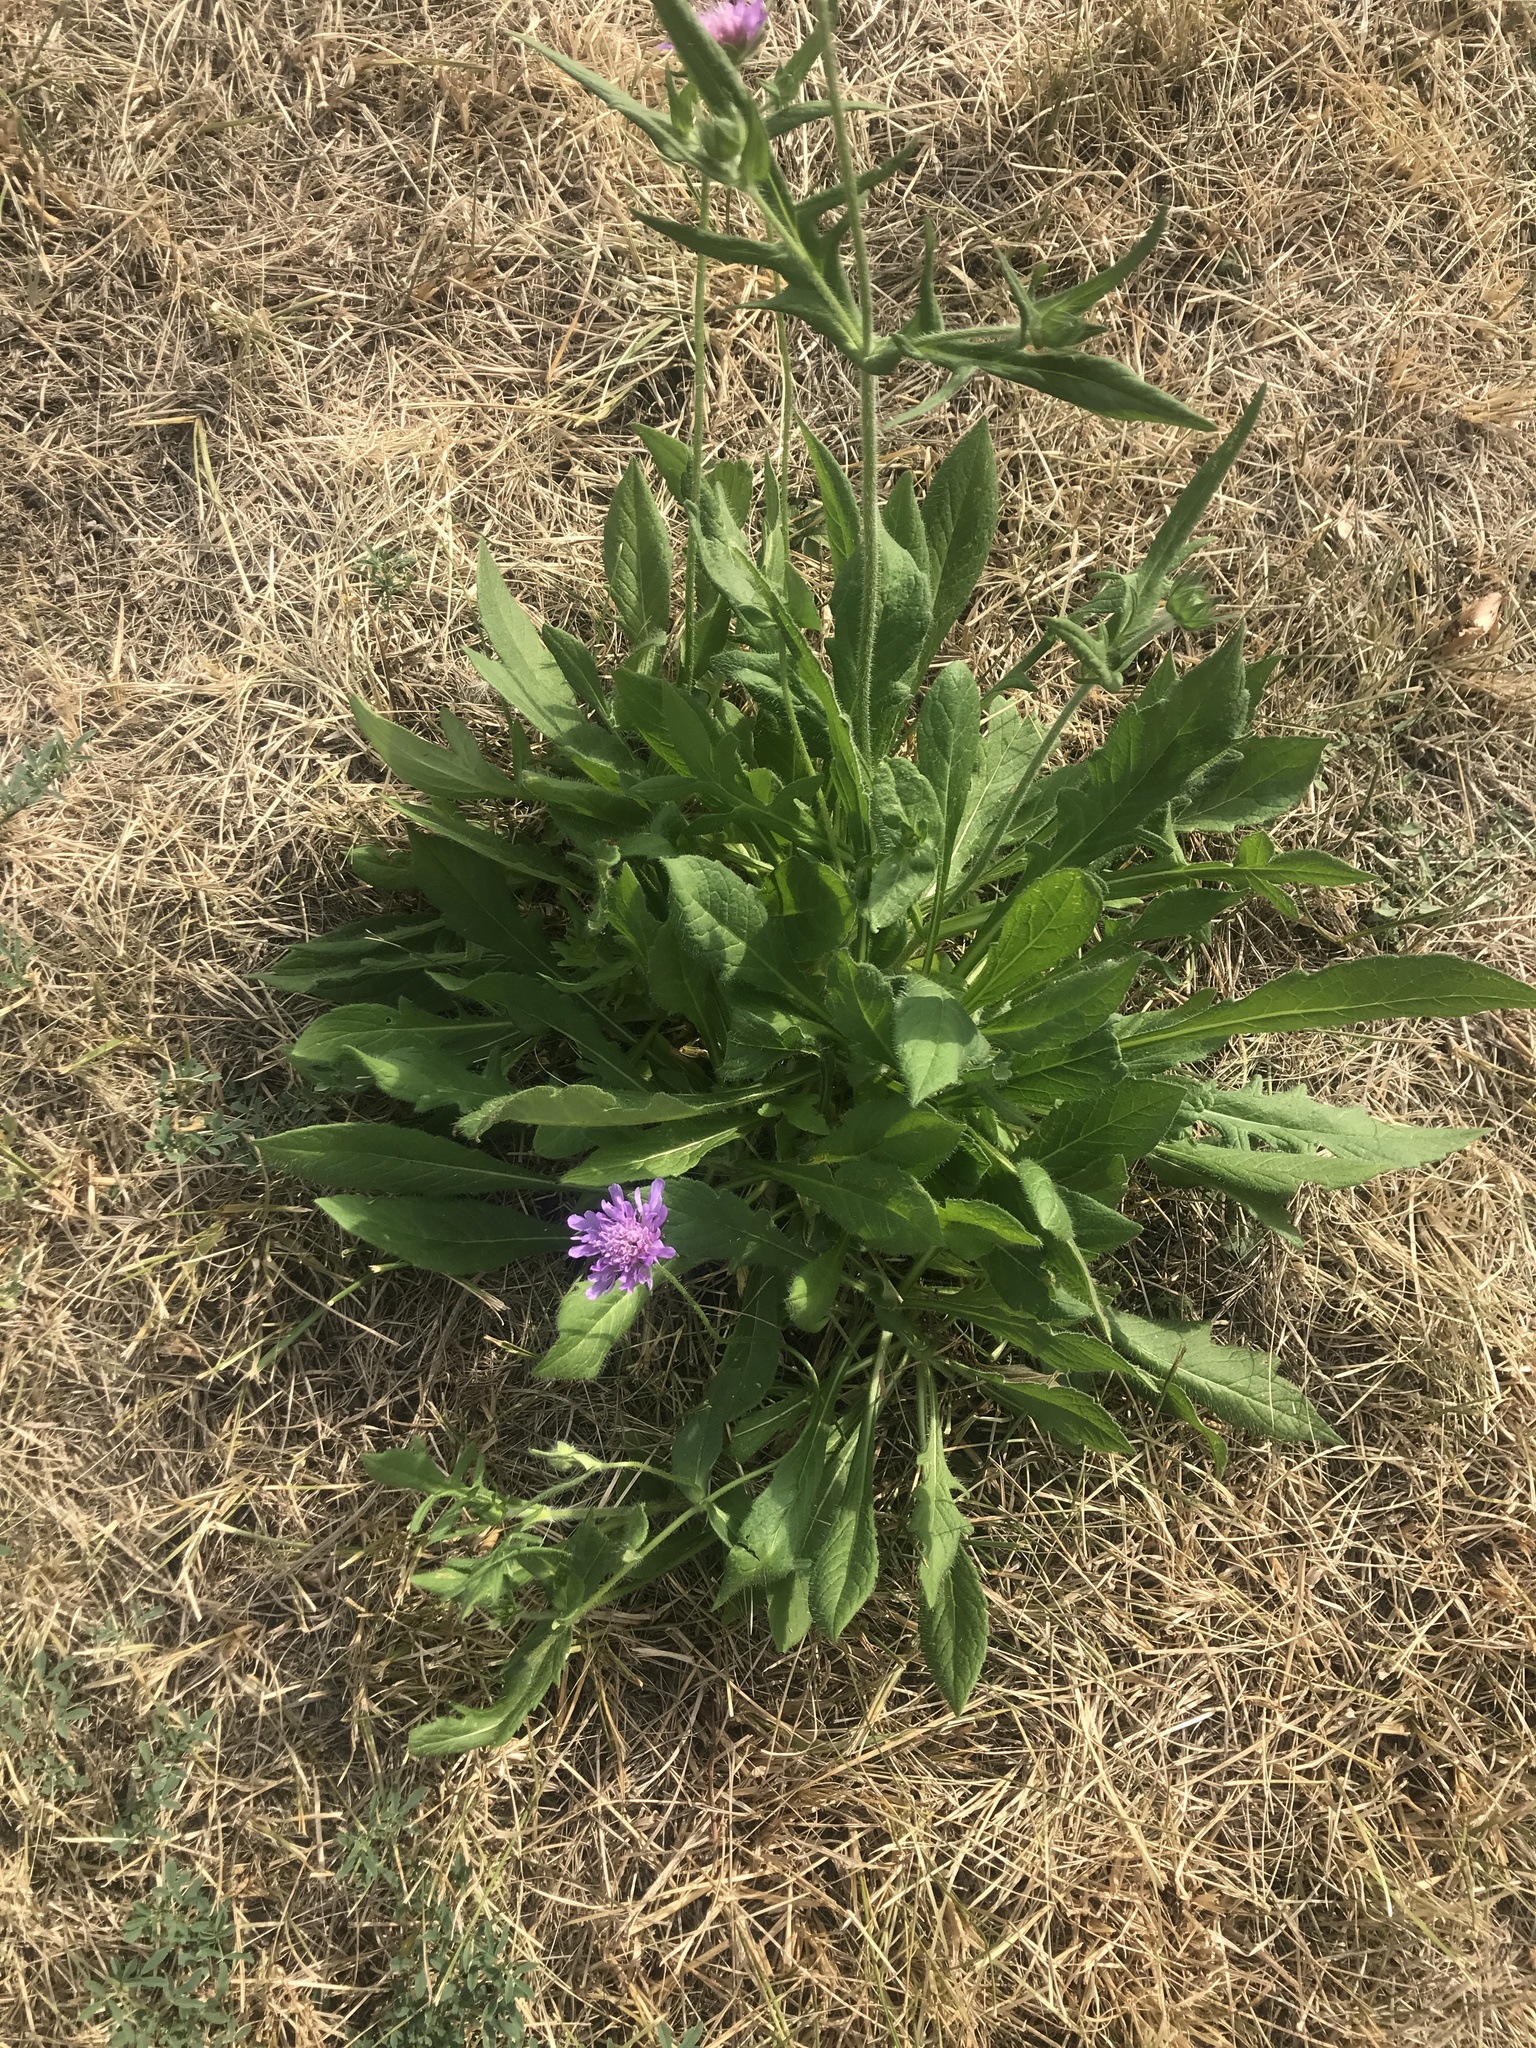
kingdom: Plantae
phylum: Tracheophyta
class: Magnoliopsida
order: Dipsacales
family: Caprifoliaceae
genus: Knautia
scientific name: Knautia arvensis
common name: Field scabiosa
